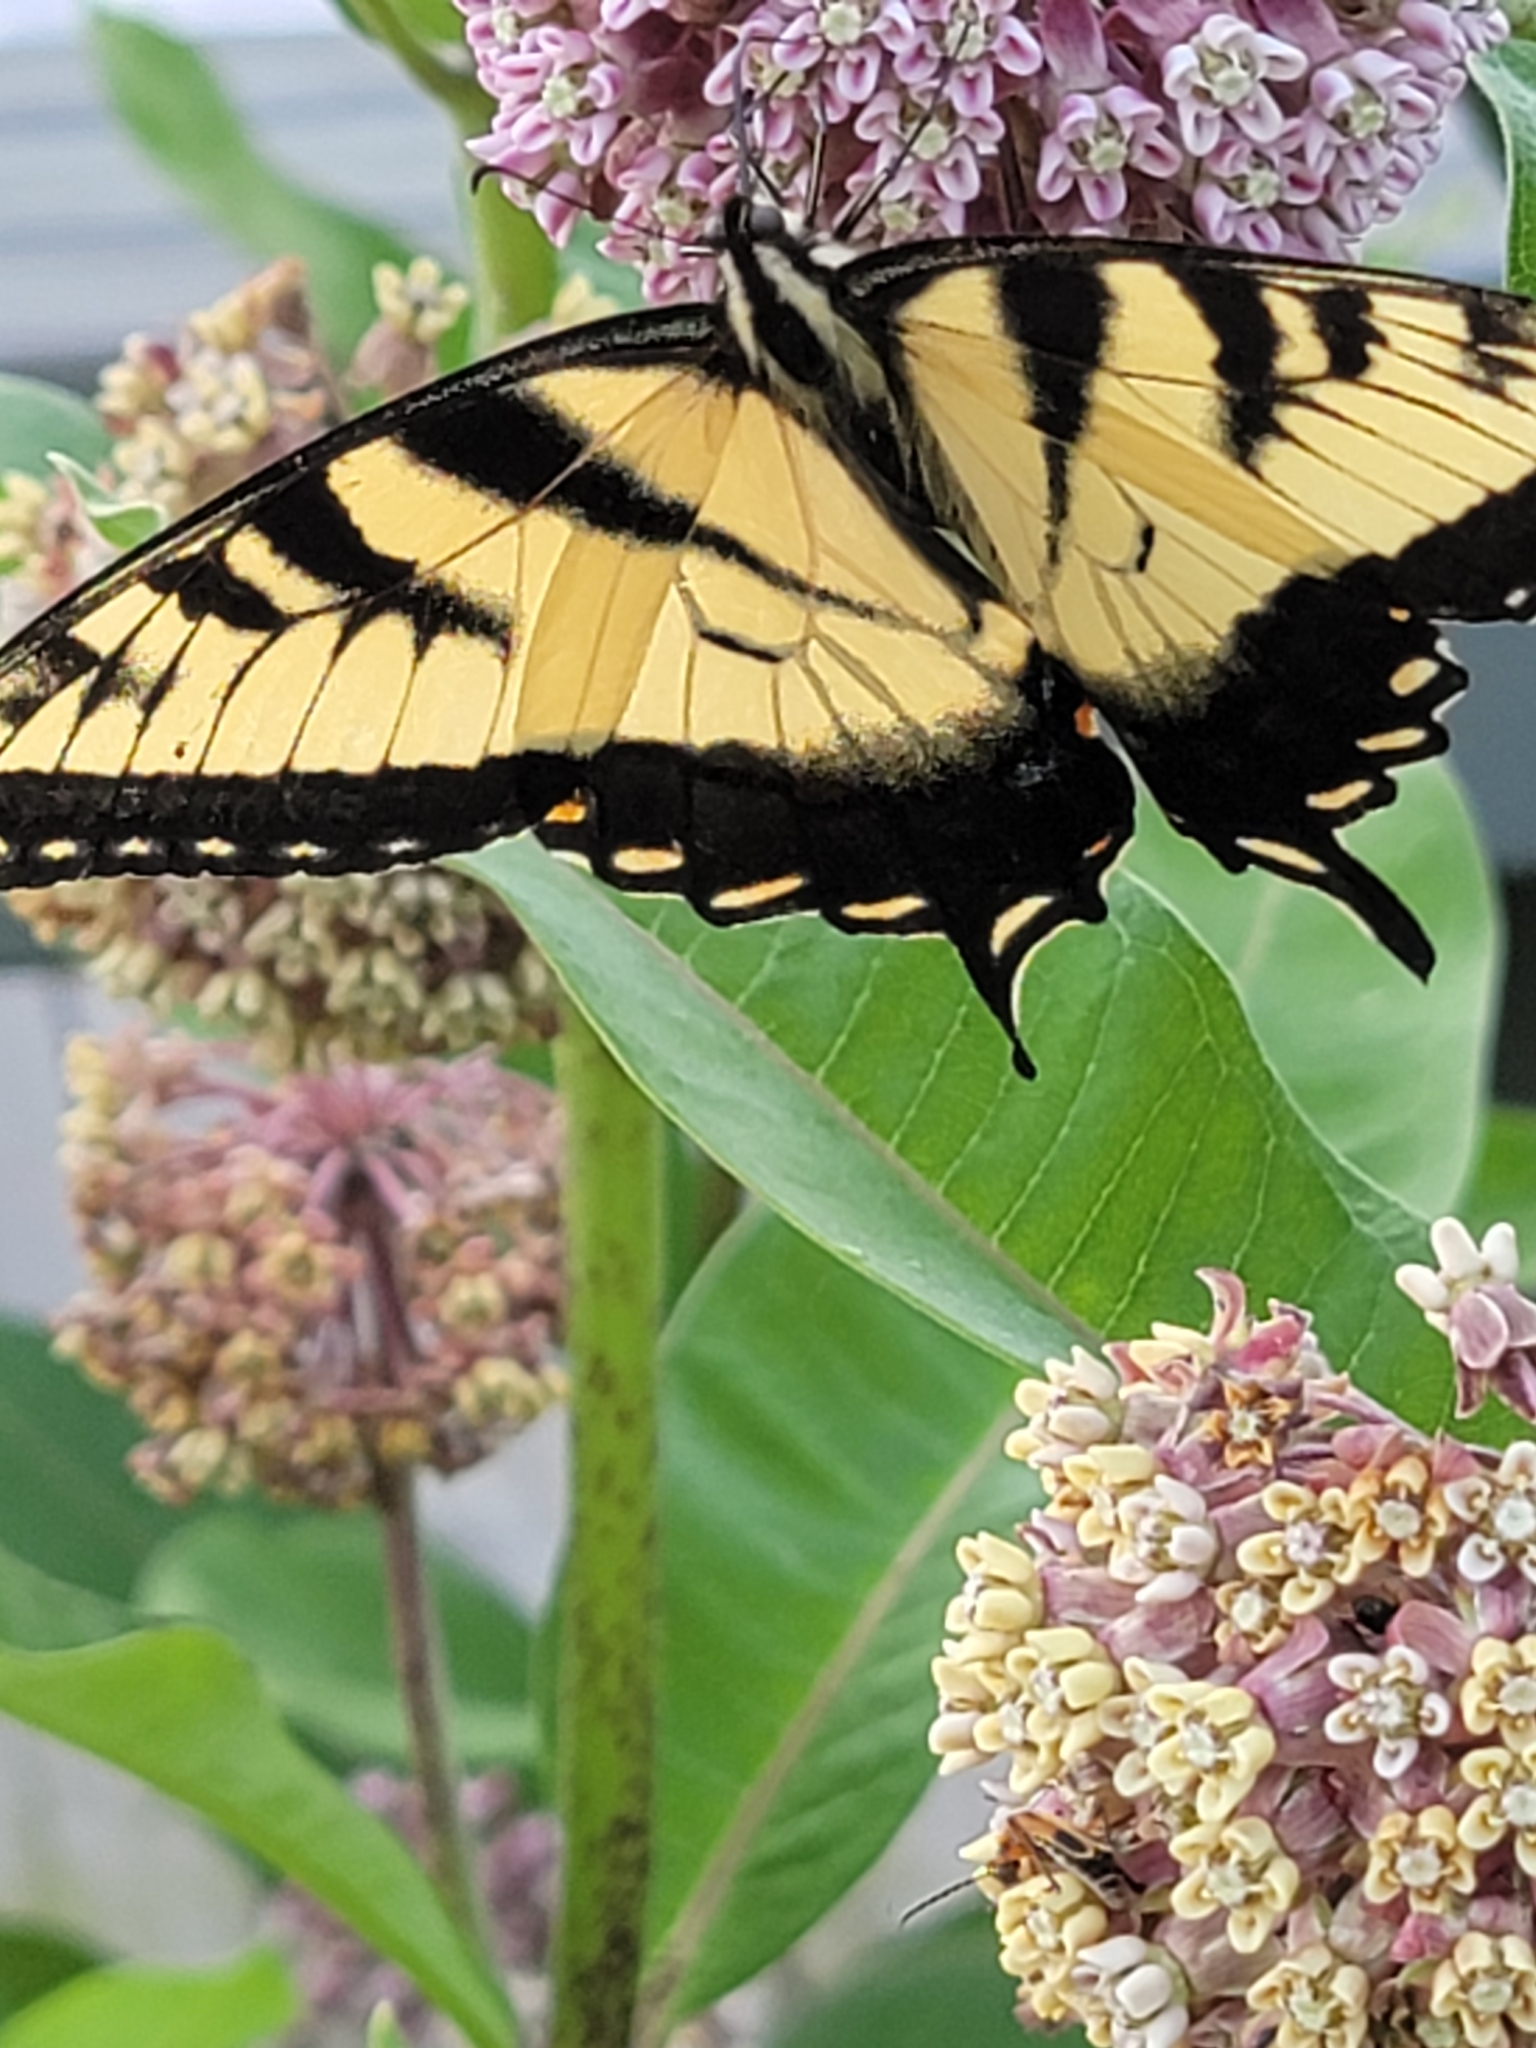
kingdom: Animalia
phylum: Arthropoda
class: Insecta
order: Lepidoptera
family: Papilionidae
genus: Papilio
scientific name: Papilio glaucus
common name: Tiger swallowtail
